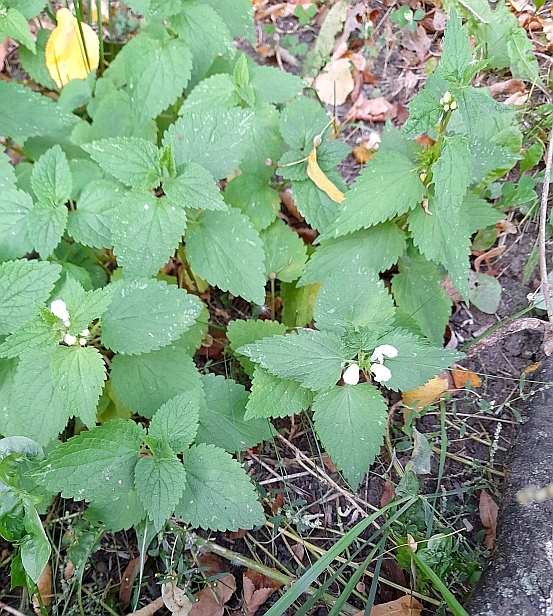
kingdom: Plantae
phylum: Tracheophyta
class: Magnoliopsida
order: Lamiales
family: Lamiaceae
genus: Lamium
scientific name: Lamium album
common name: White dead-nettle
